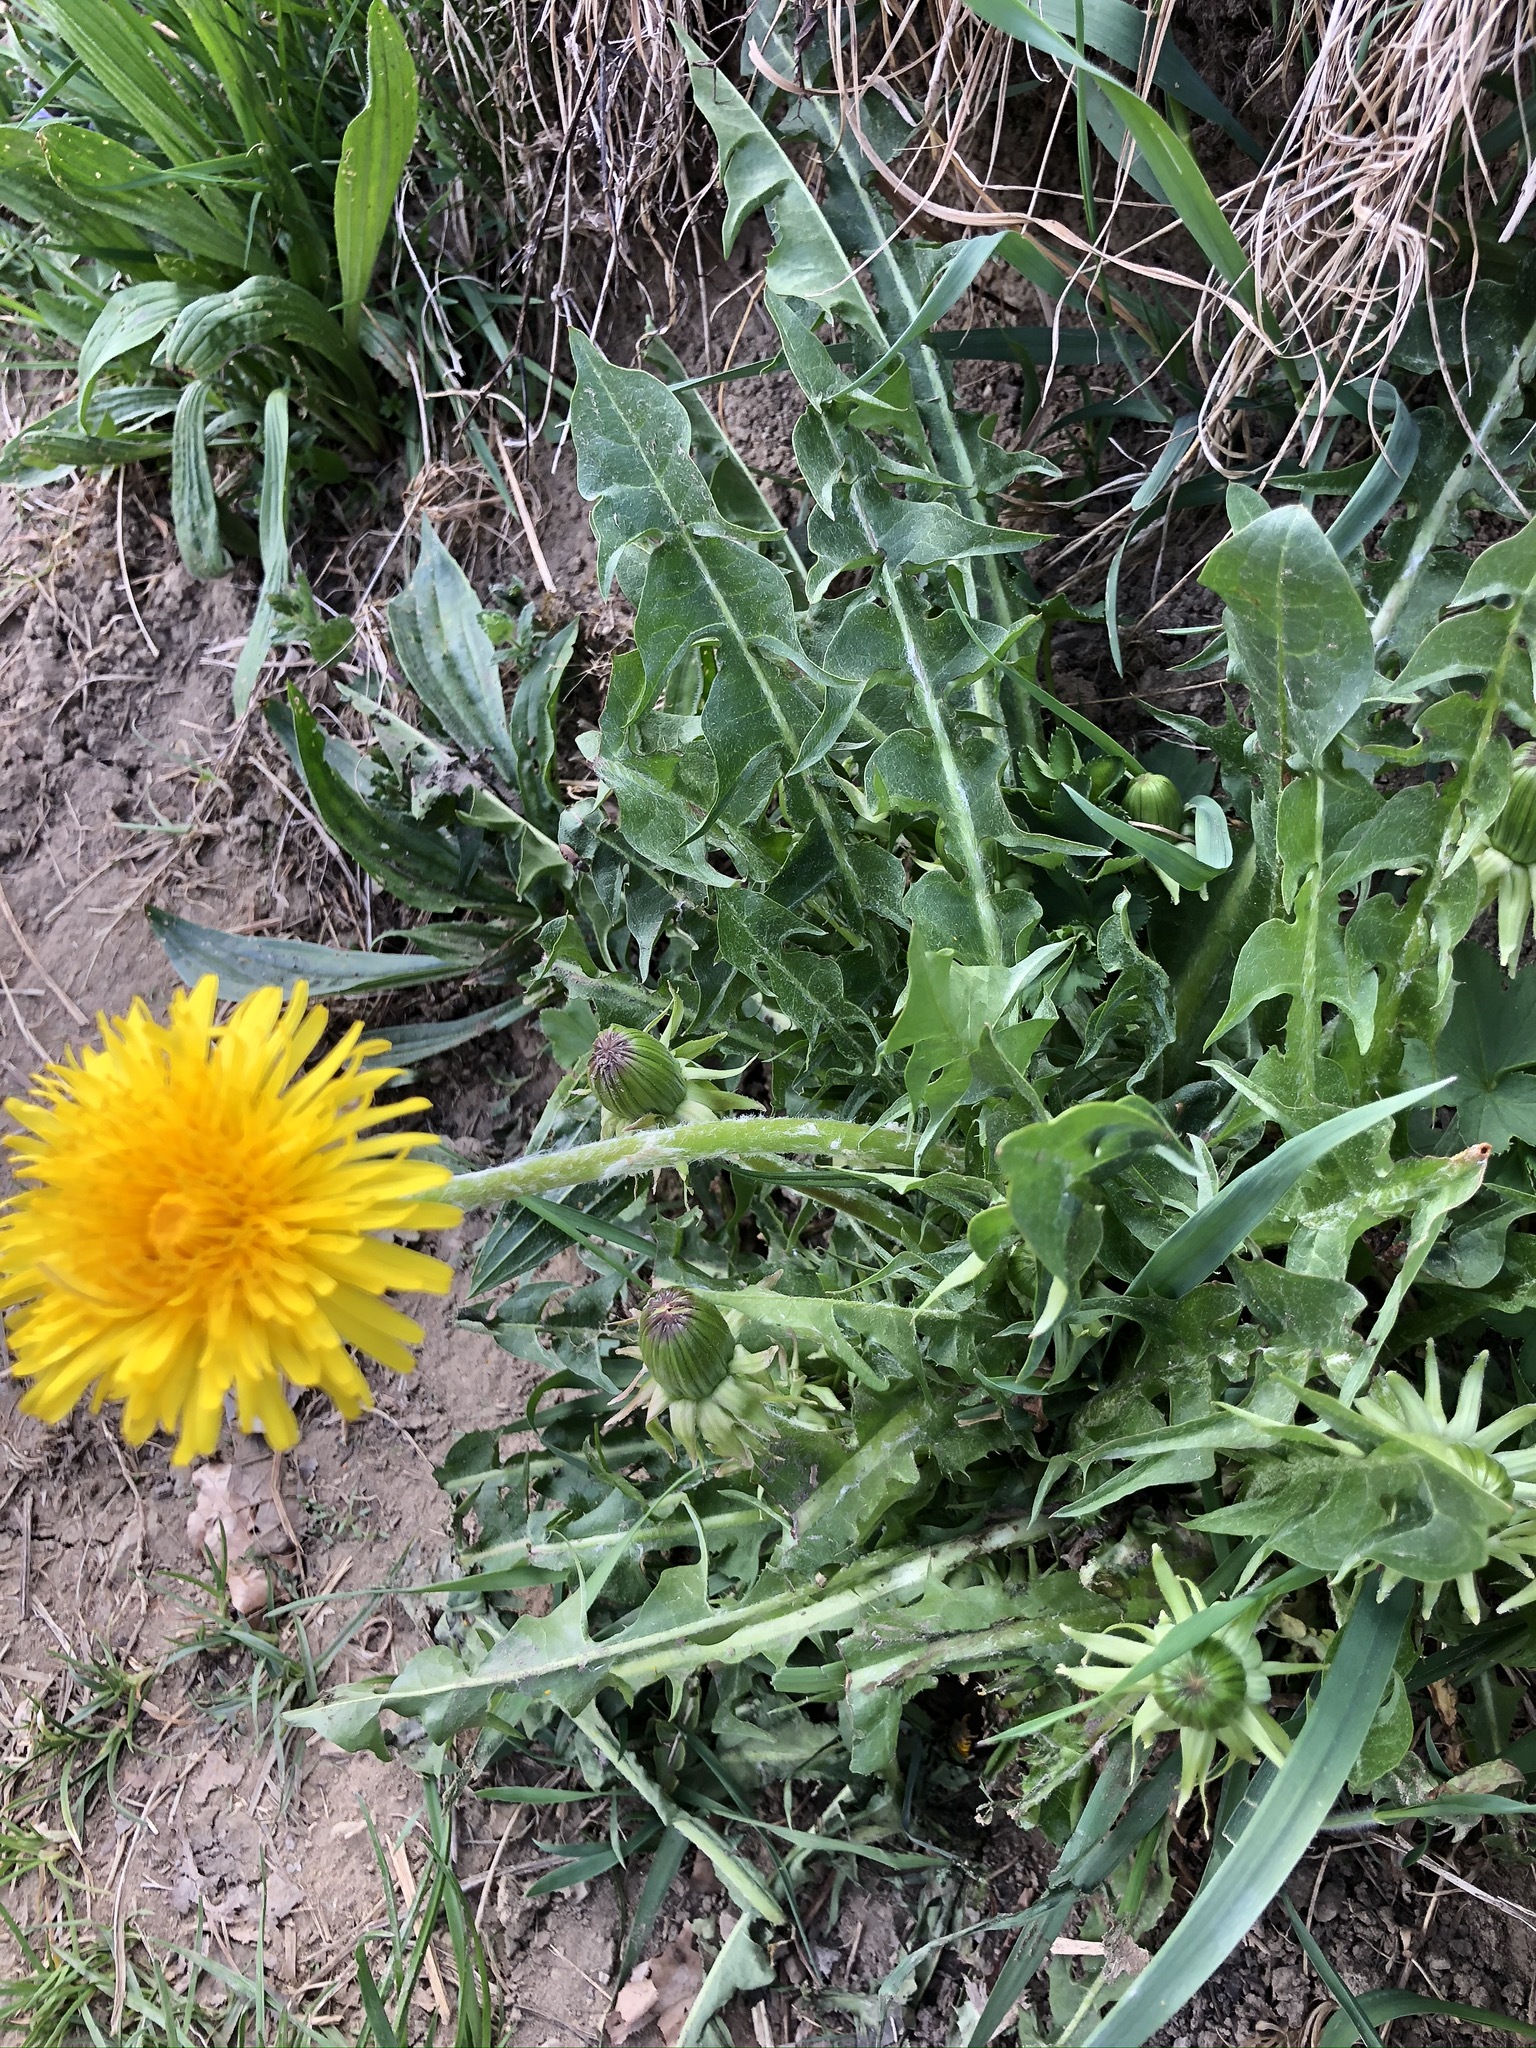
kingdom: Plantae
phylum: Tracheophyta
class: Magnoliopsida
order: Asterales
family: Asteraceae
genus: Taraxacum
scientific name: Taraxacum officinale
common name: Common dandelion
